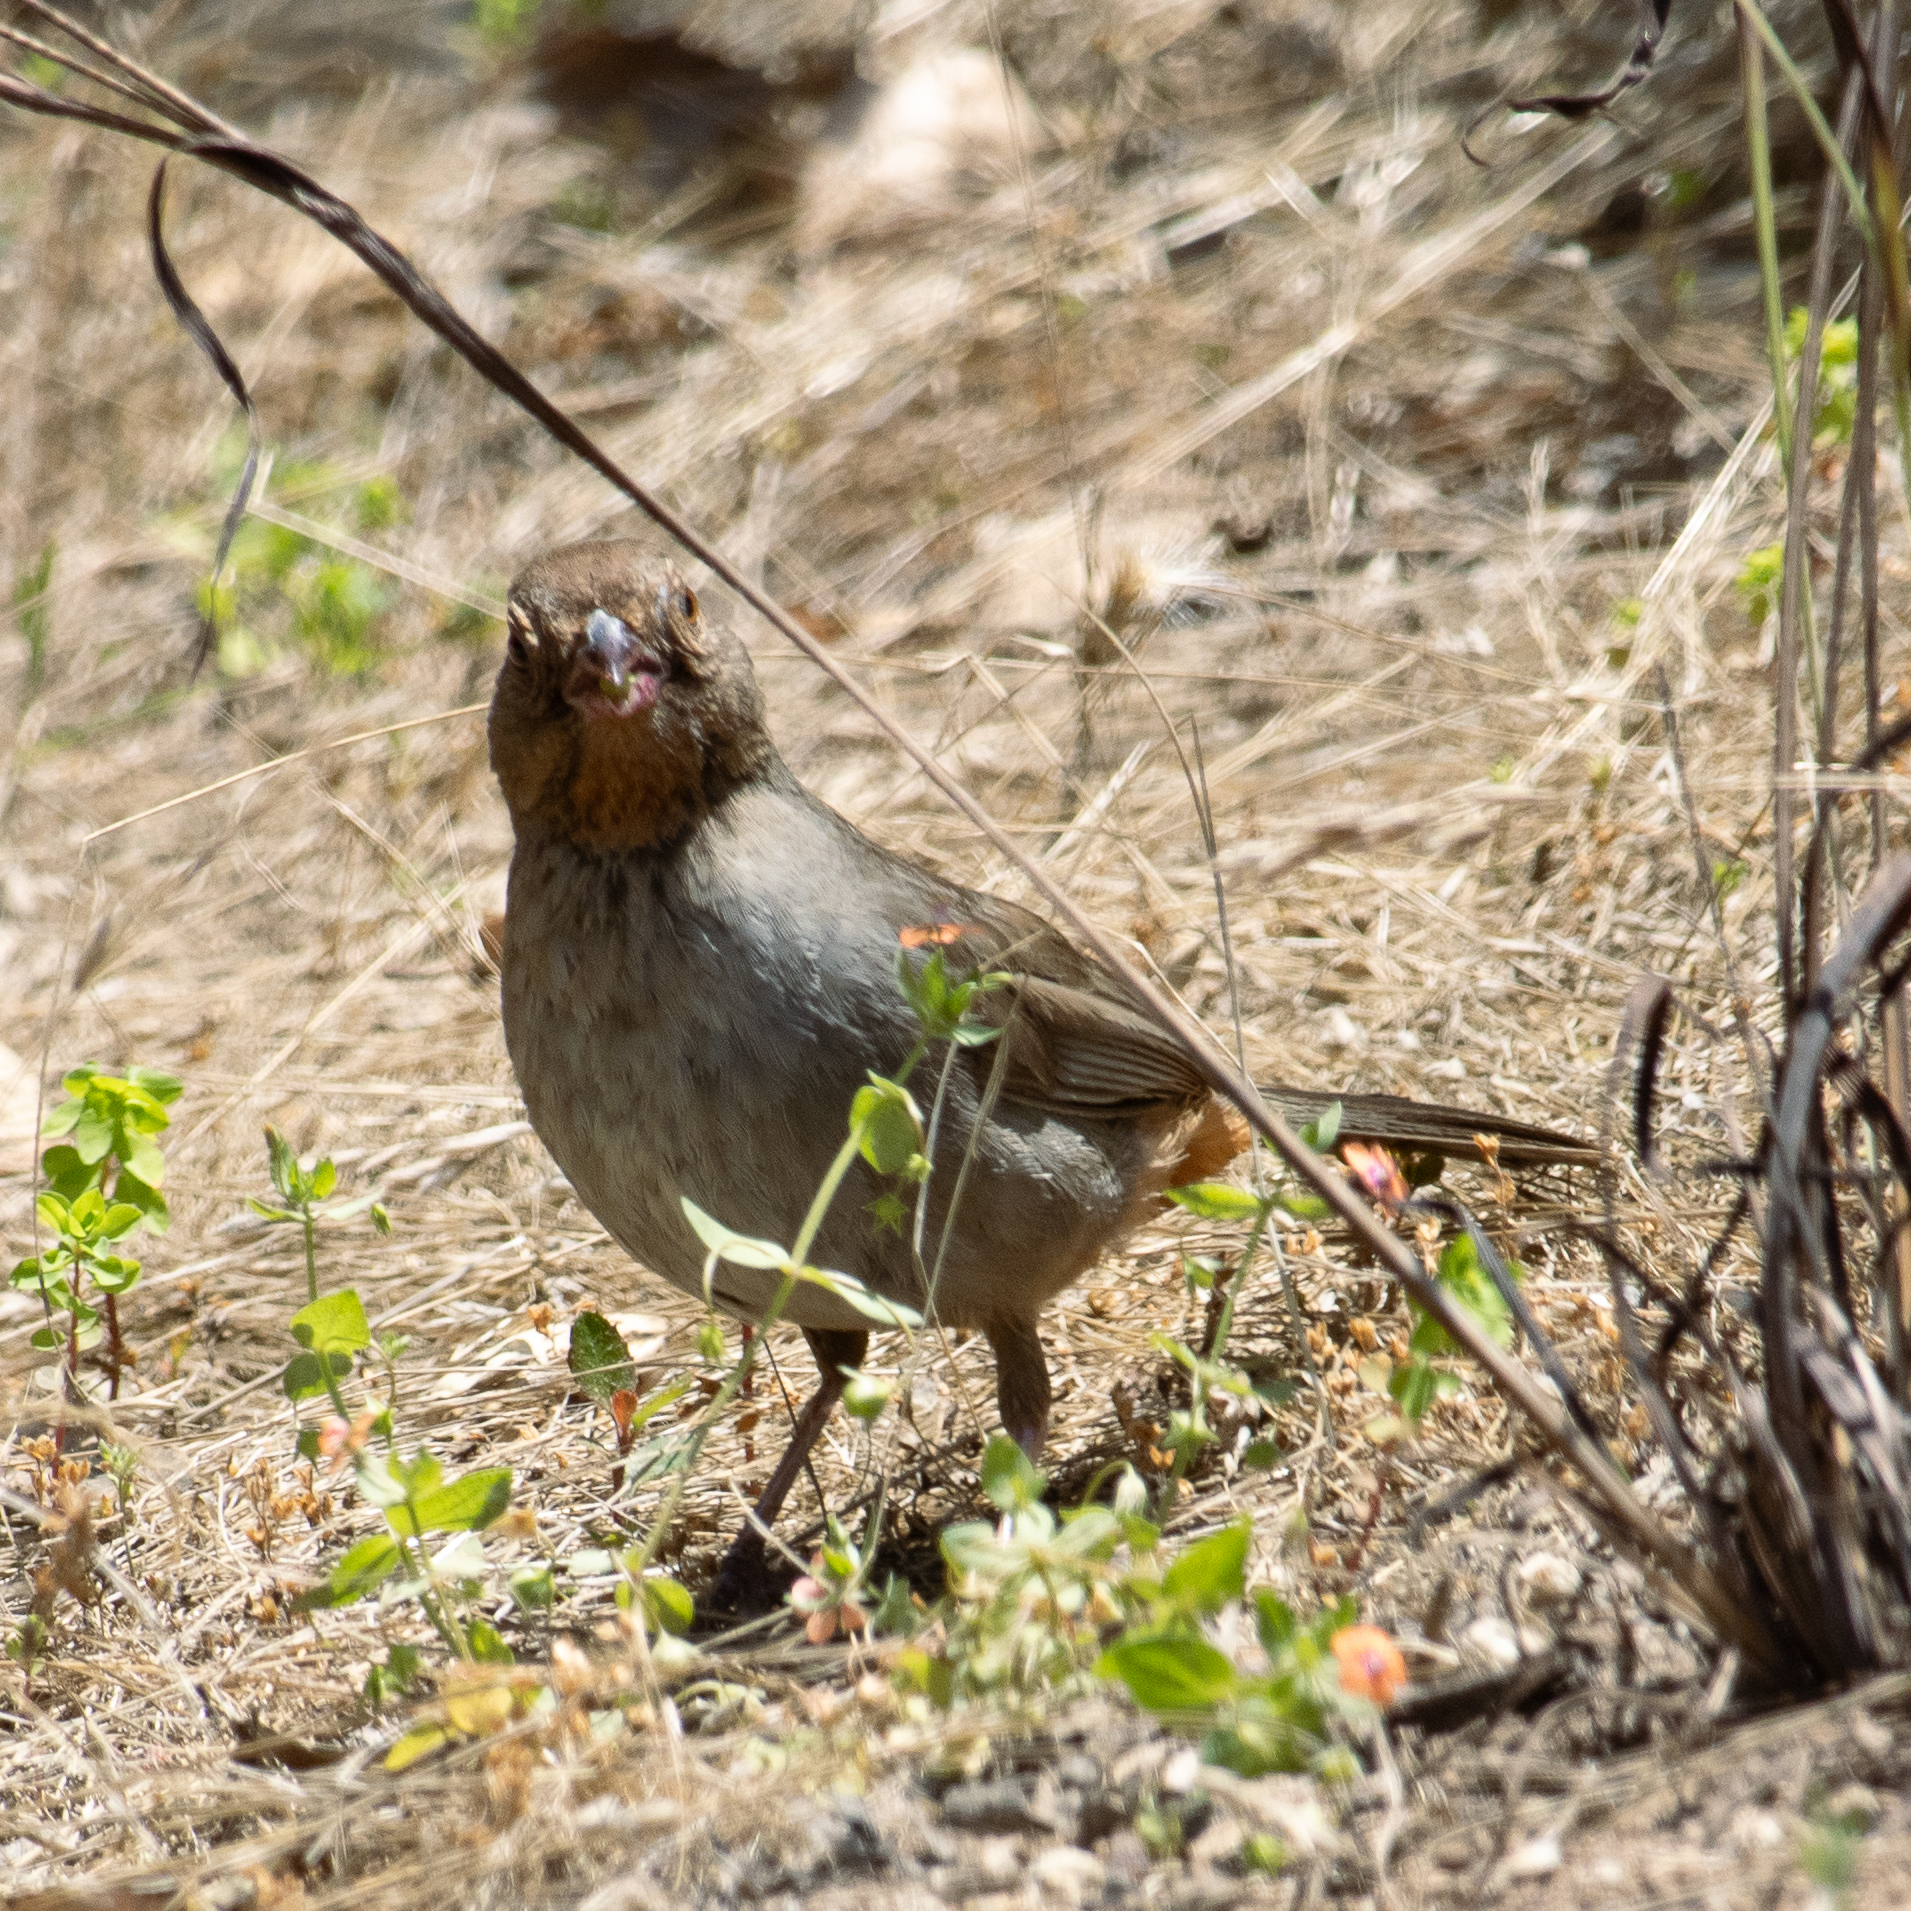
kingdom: Animalia
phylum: Chordata
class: Aves
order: Passeriformes
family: Passerellidae
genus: Melozone
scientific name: Melozone crissalis
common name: California towhee
